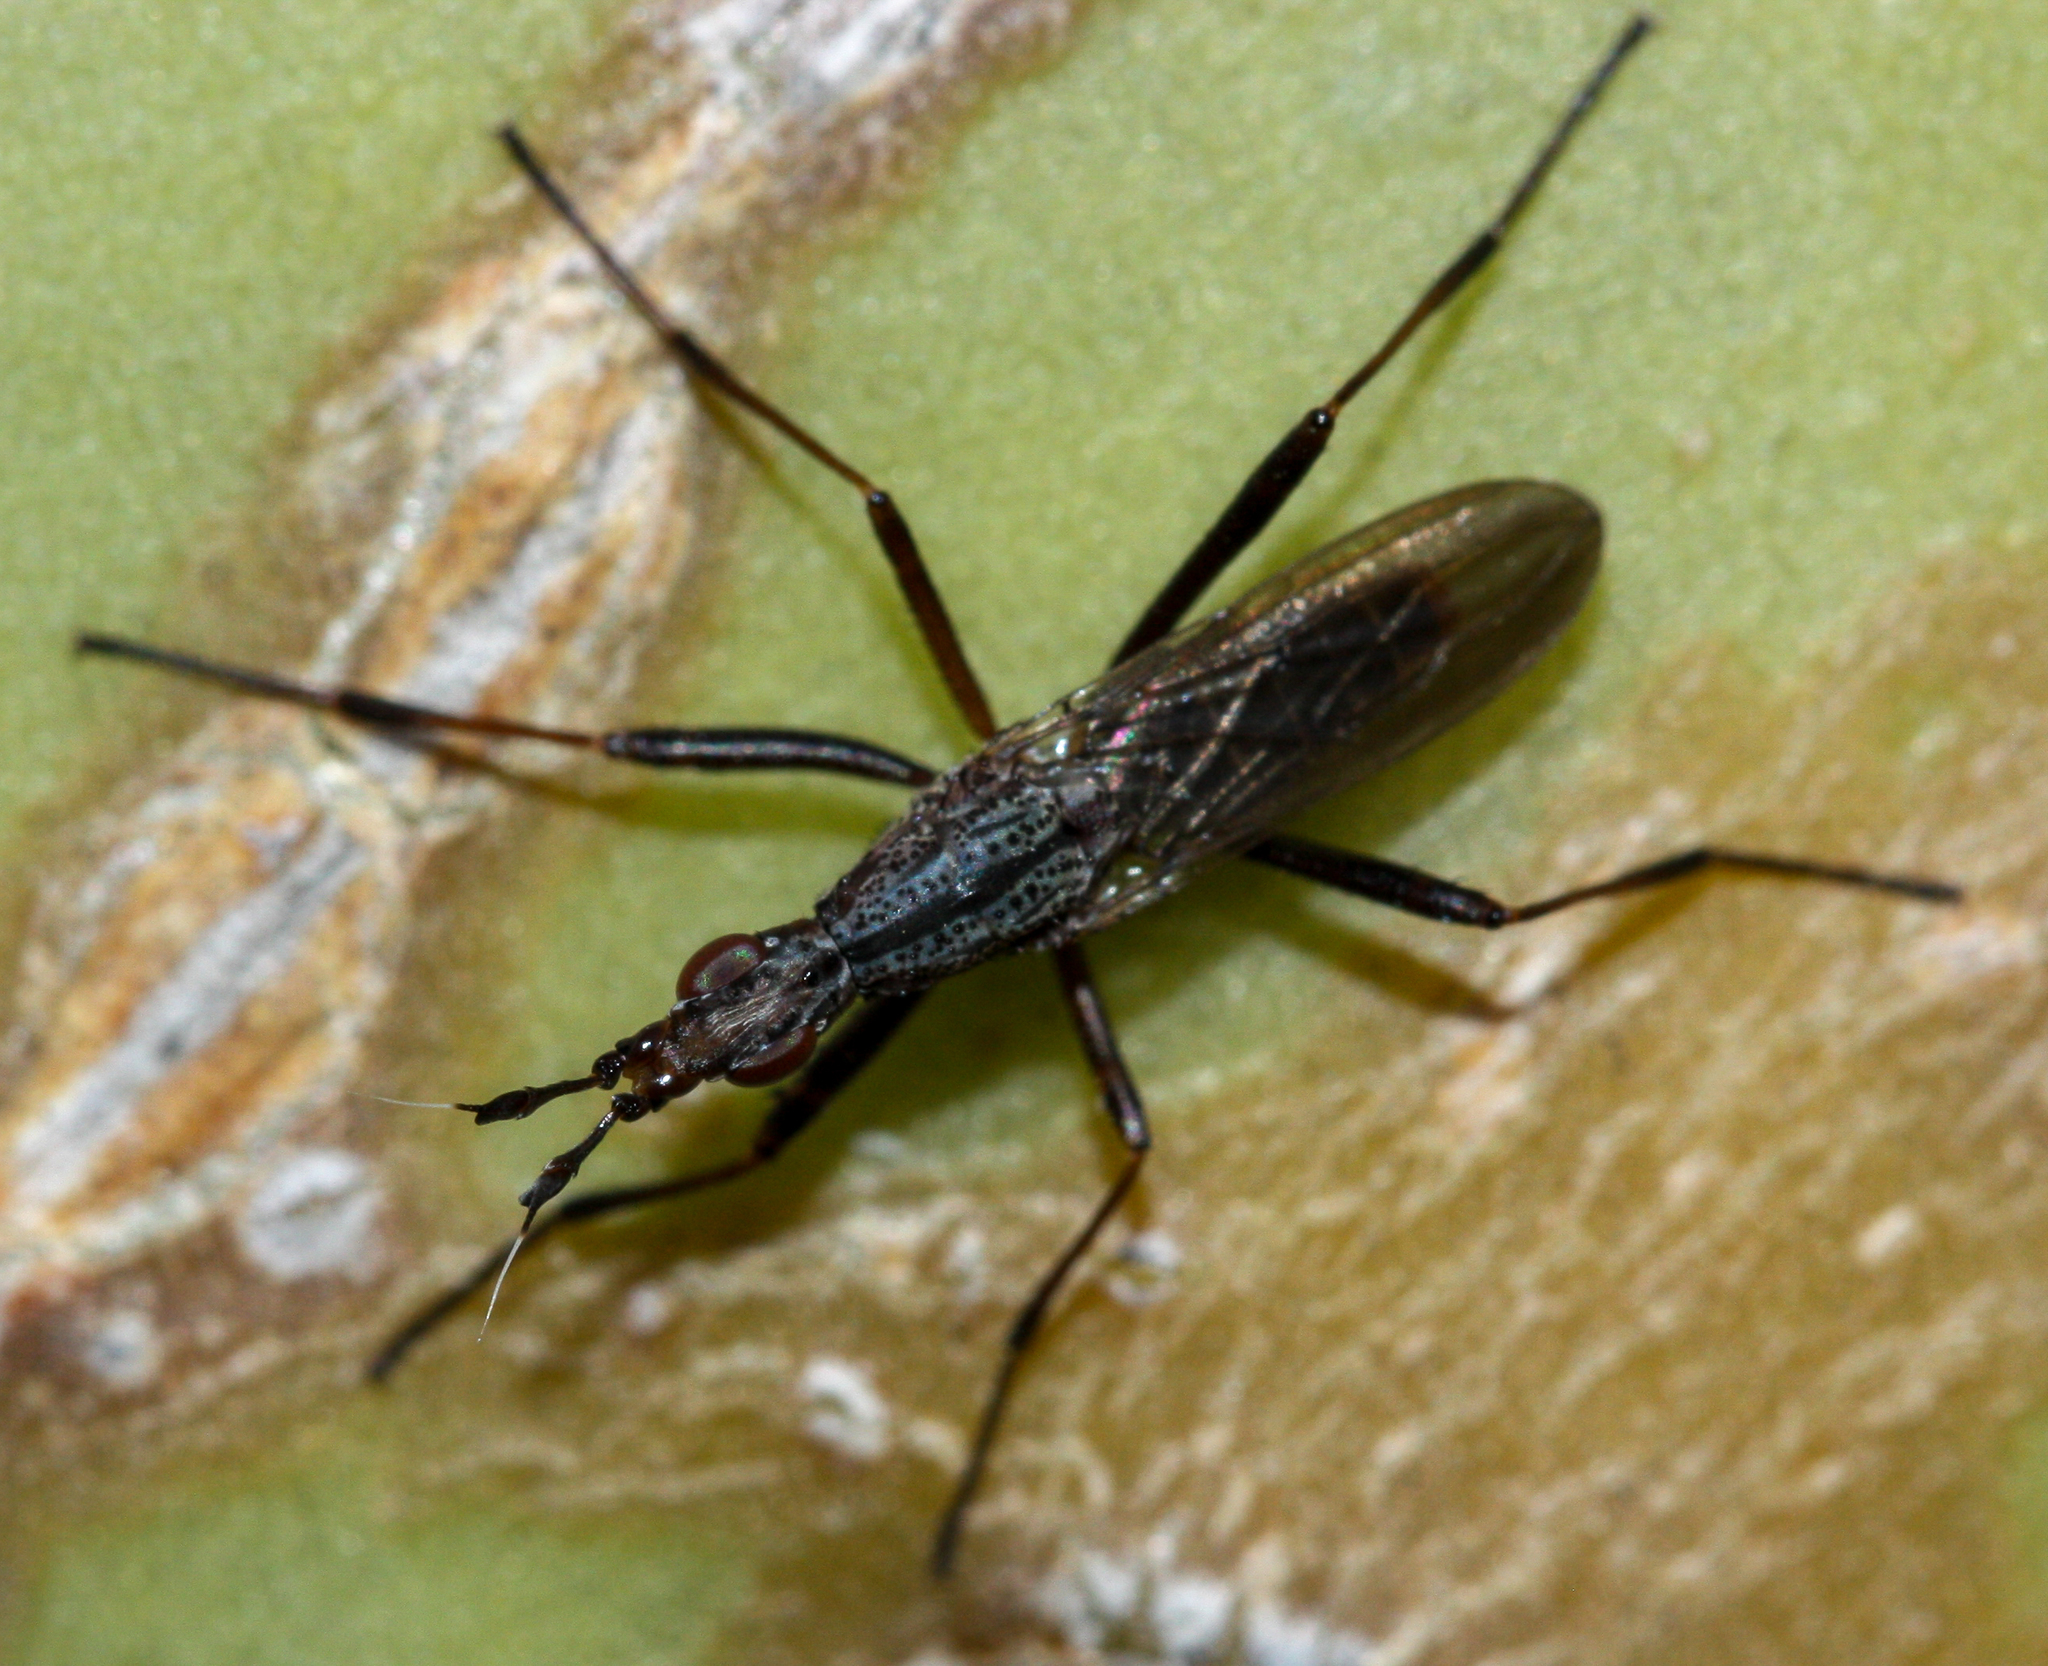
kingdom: Animalia
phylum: Arthropoda
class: Insecta
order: Diptera
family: Neriidae
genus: Odontoloxozus
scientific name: Odontoloxozus longicornis
